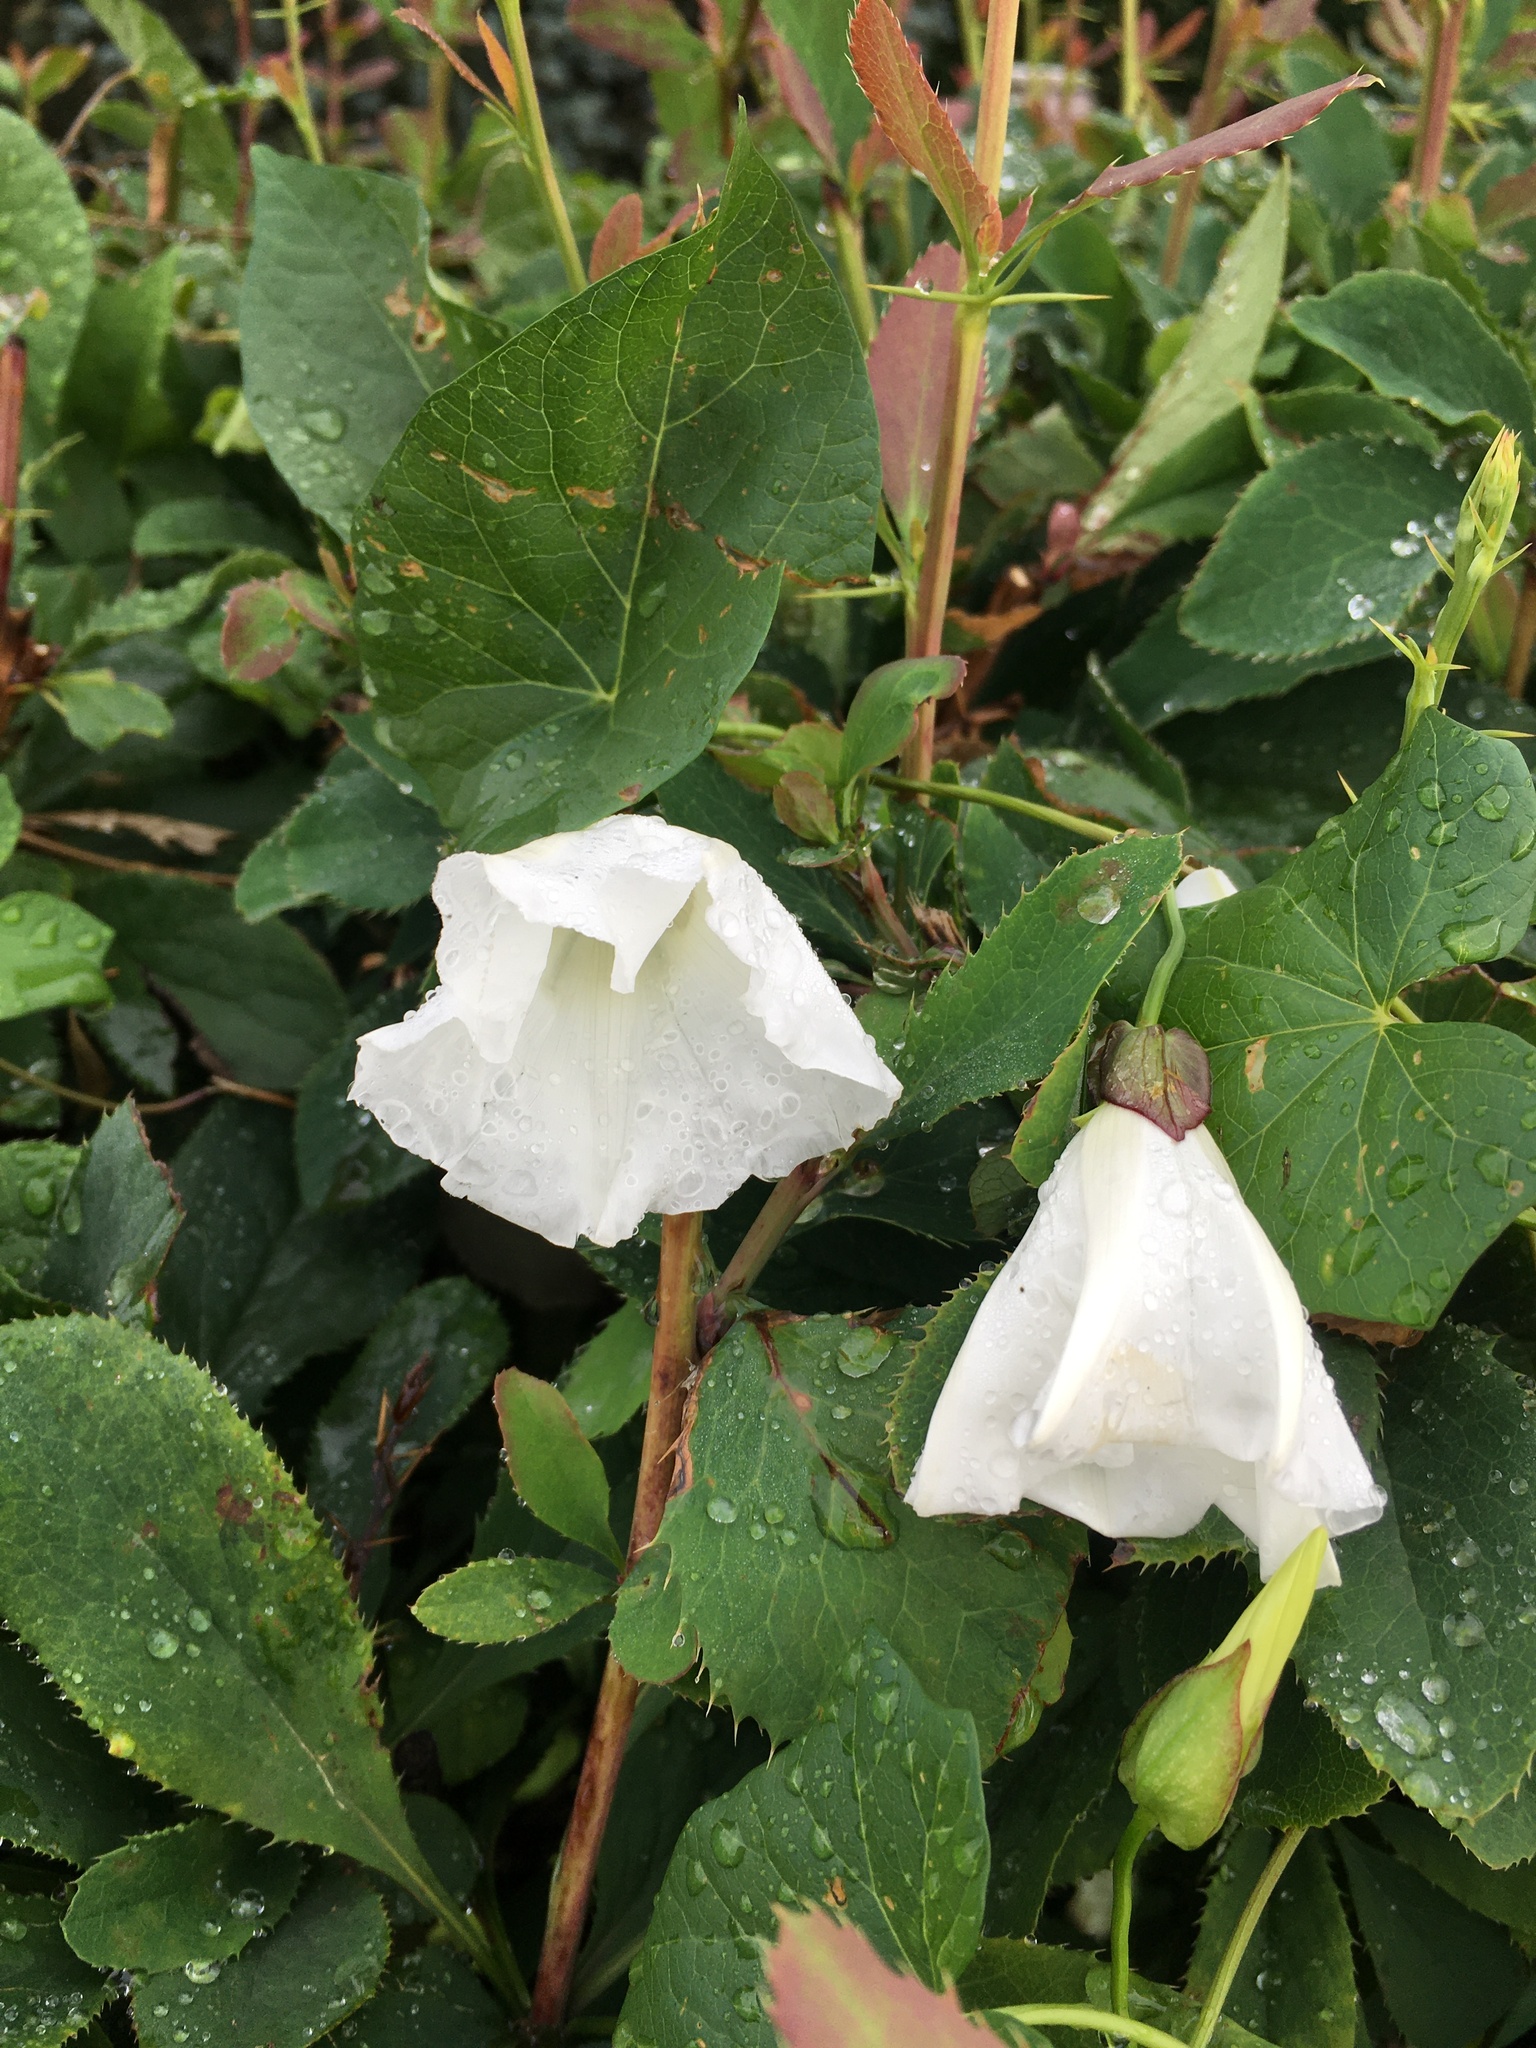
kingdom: Plantae
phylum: Tracheophyta
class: Magnoliopsida
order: Solanales
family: Convolvulaceae
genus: Calystegia
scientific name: Calystegia sepium
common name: Hedge bindweed
